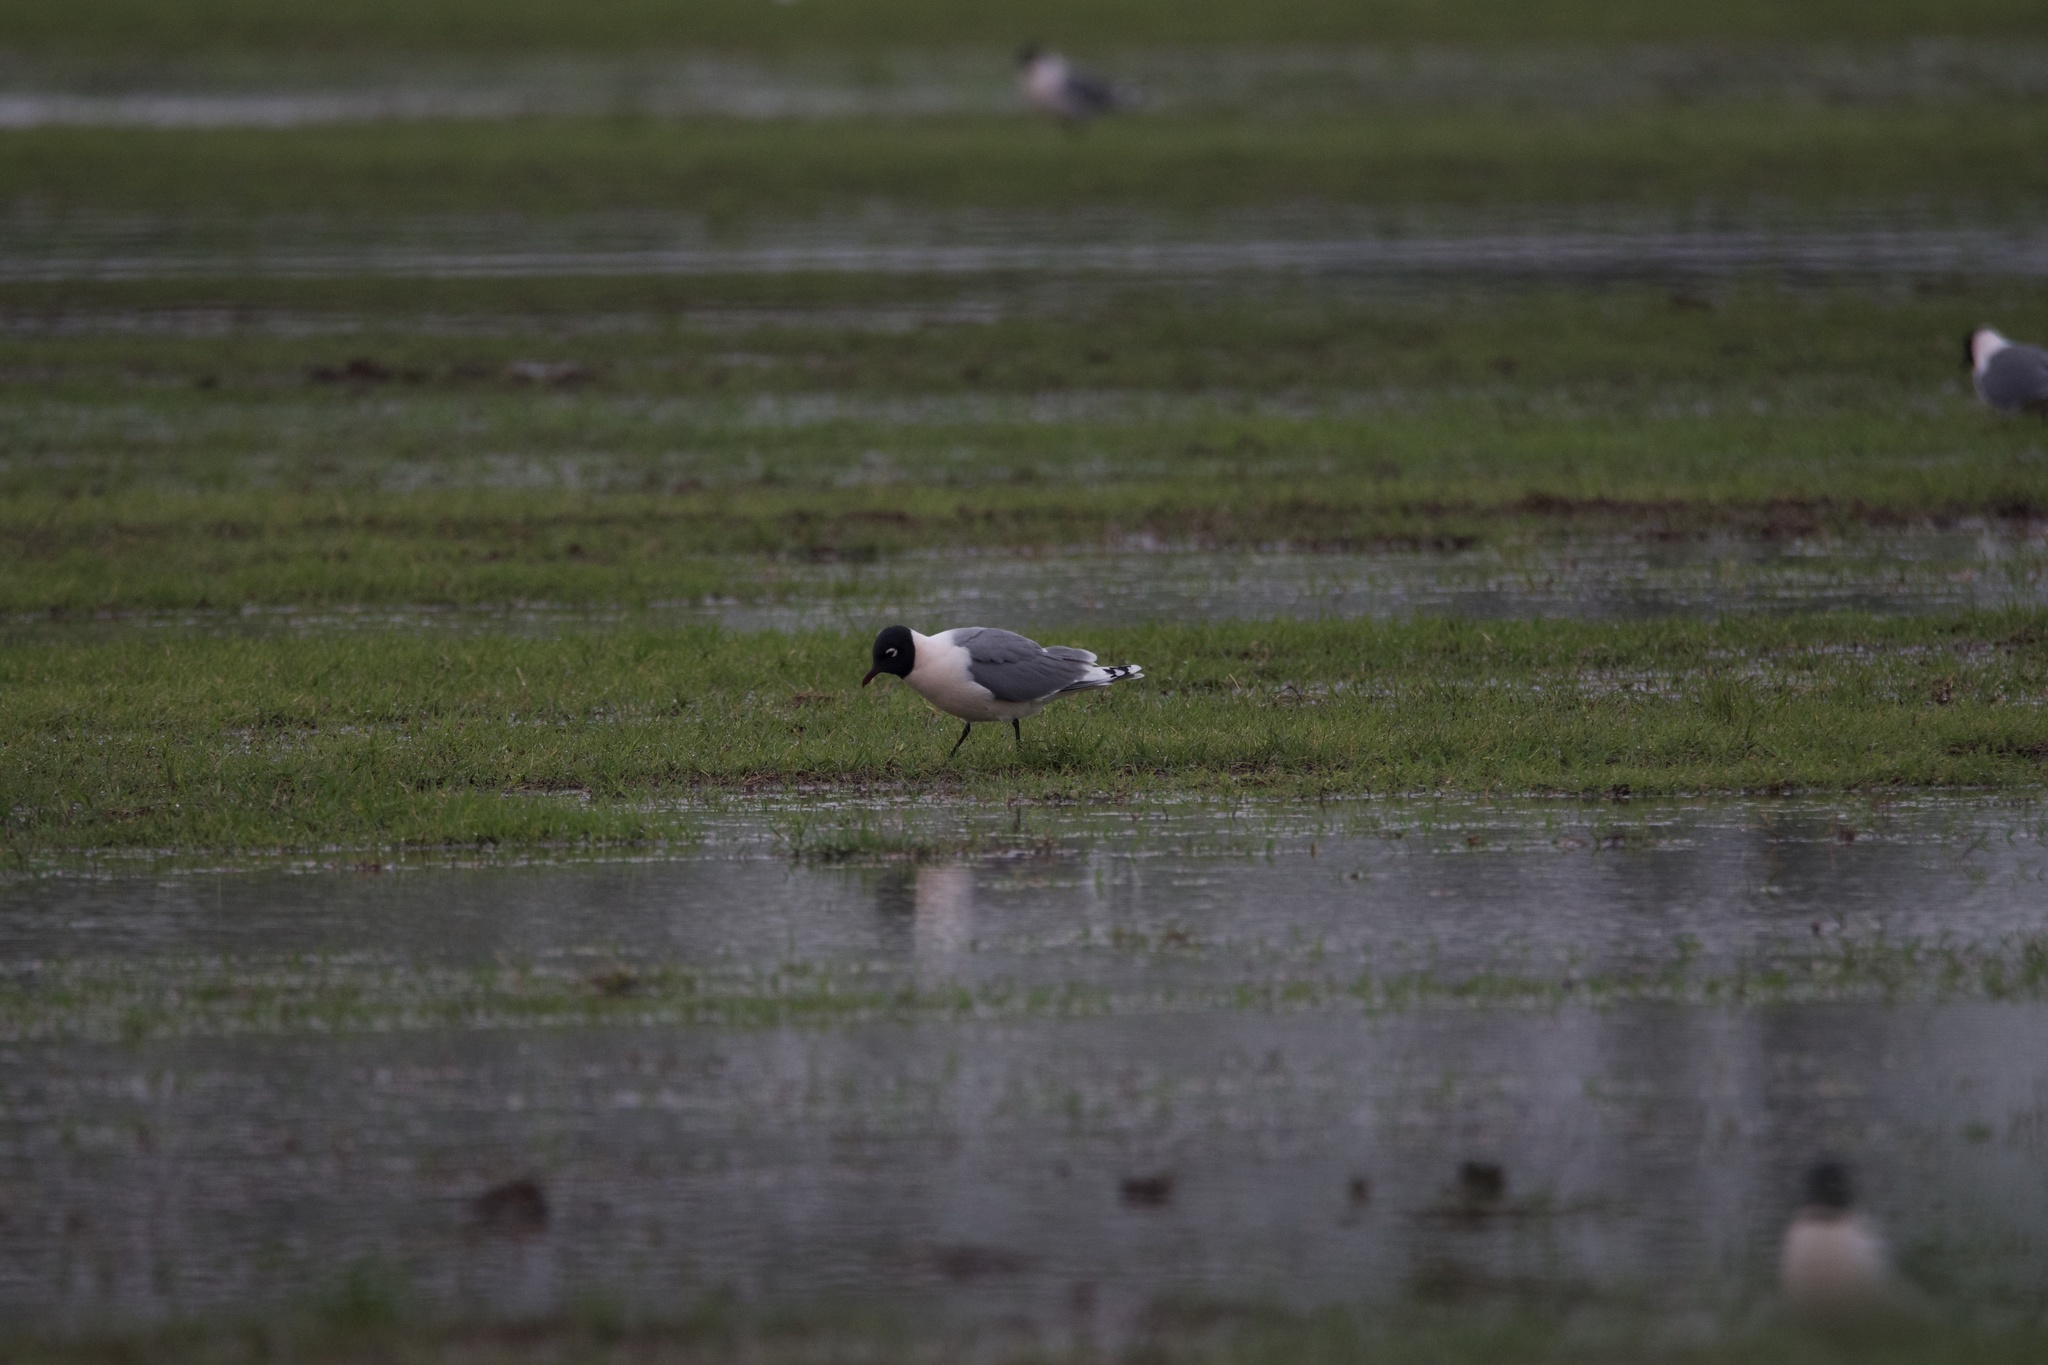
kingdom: Animalia
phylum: Chordata
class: Aves
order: Charadriiformes
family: Laridae
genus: Leucophaeus
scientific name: Leucophaeus pipixcan
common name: Franklin's gull
